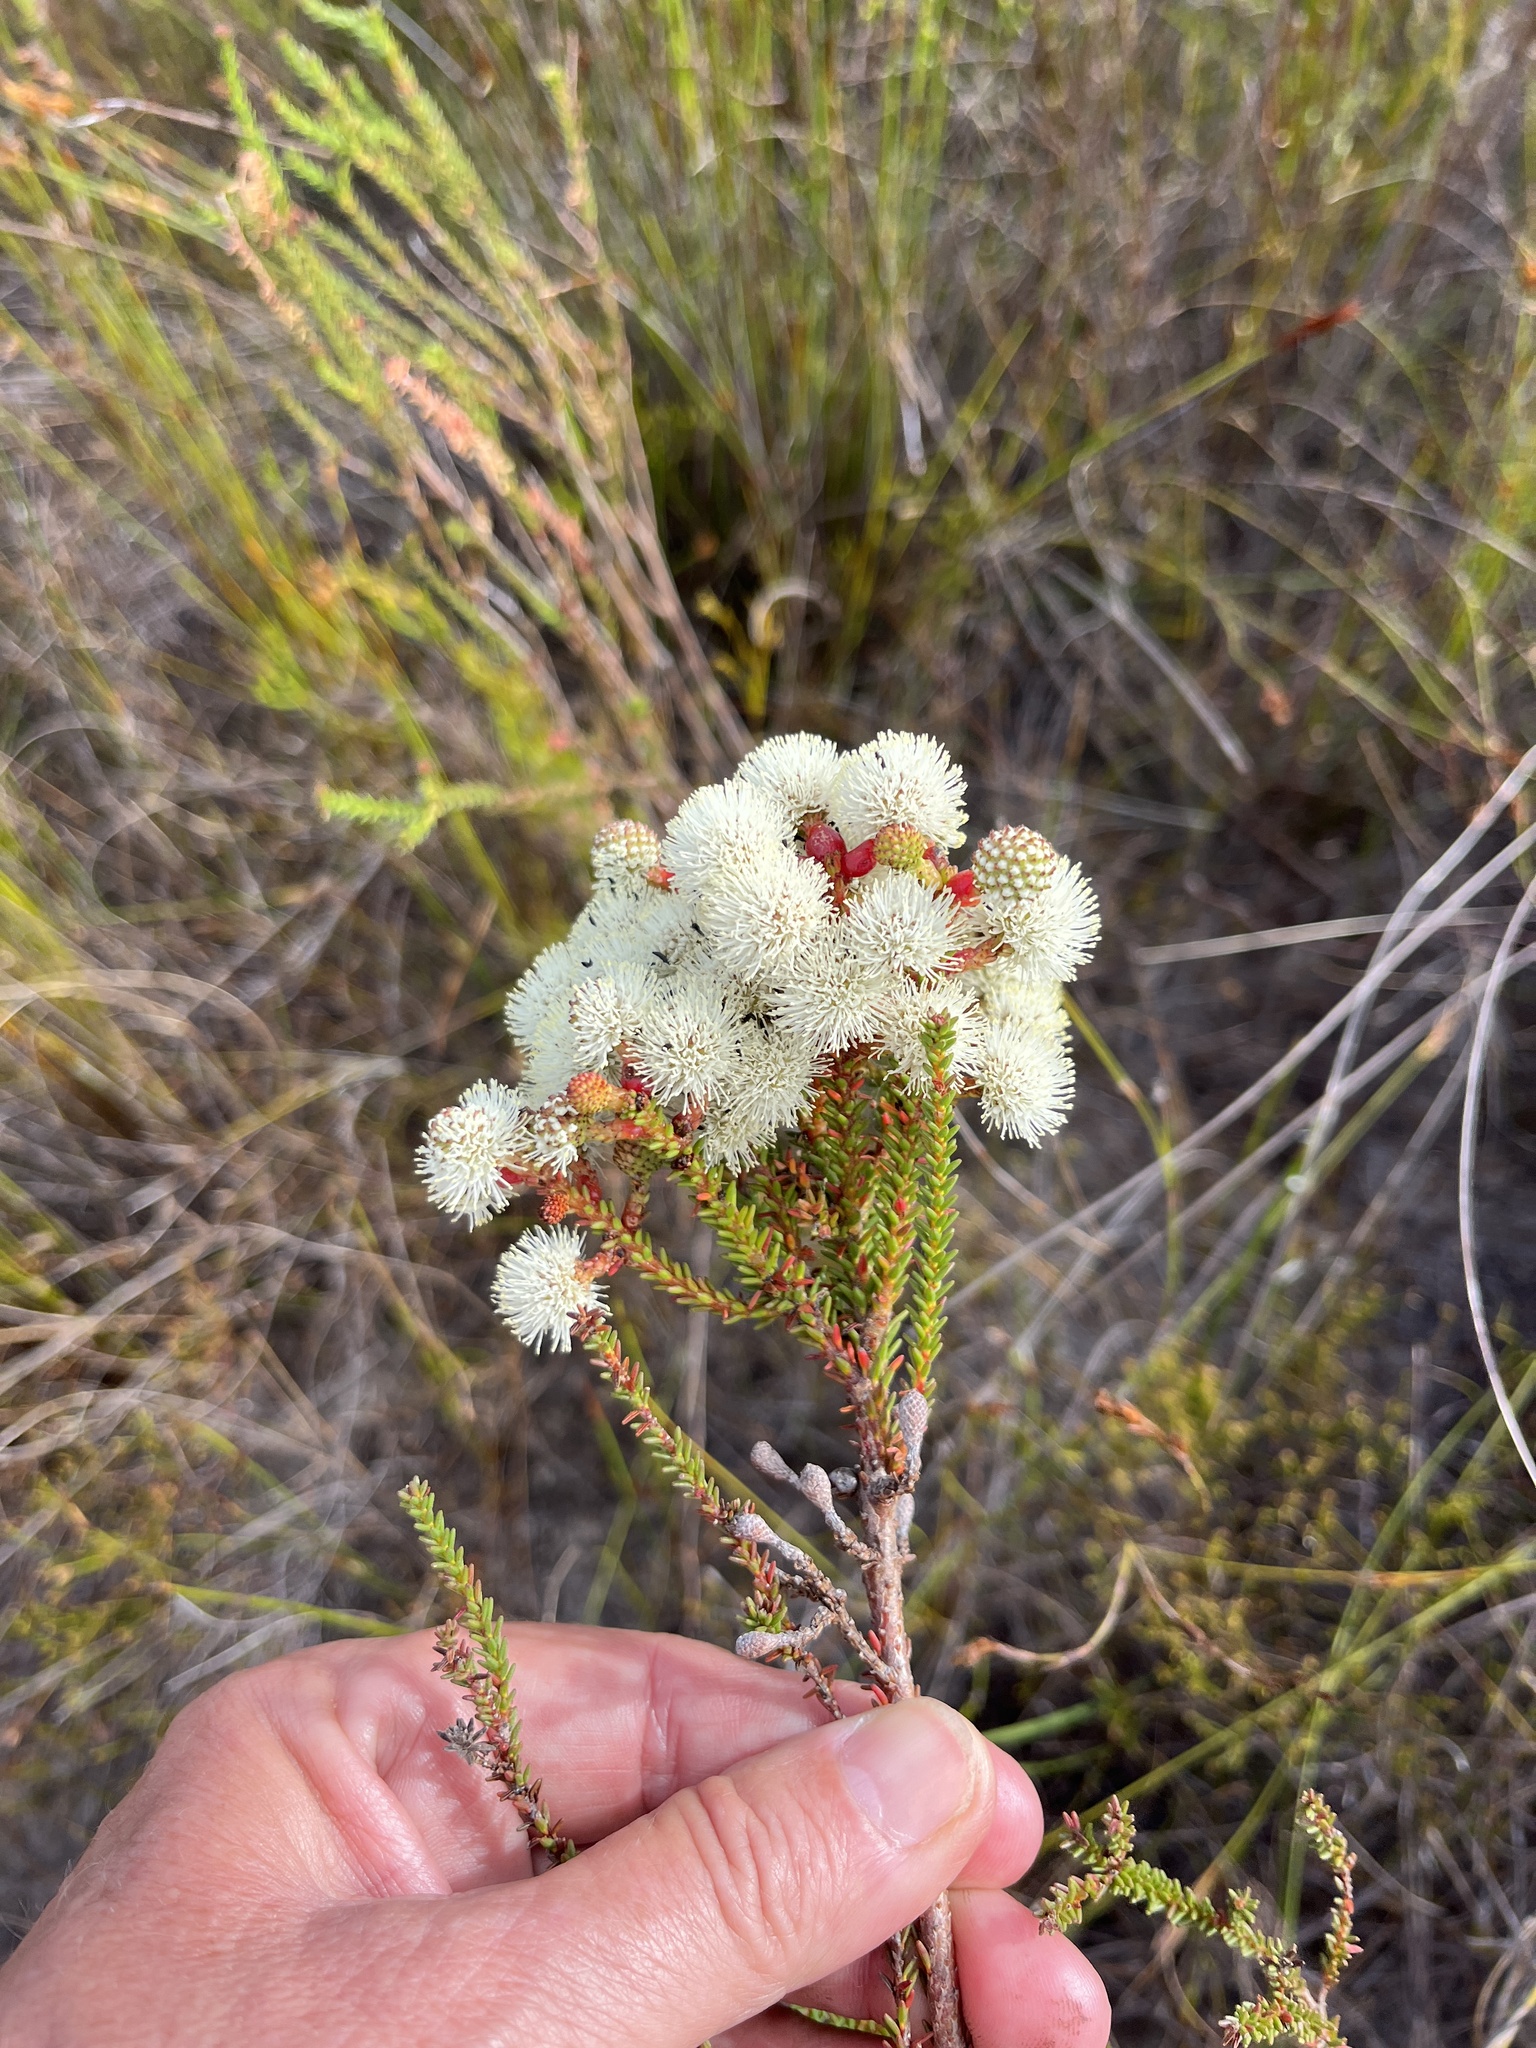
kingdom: Plantae
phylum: Tracheophyta
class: Magnoliopsida
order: Bruniales
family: Bruniaceae
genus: Berzelia
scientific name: Berzelia abrotanoides
